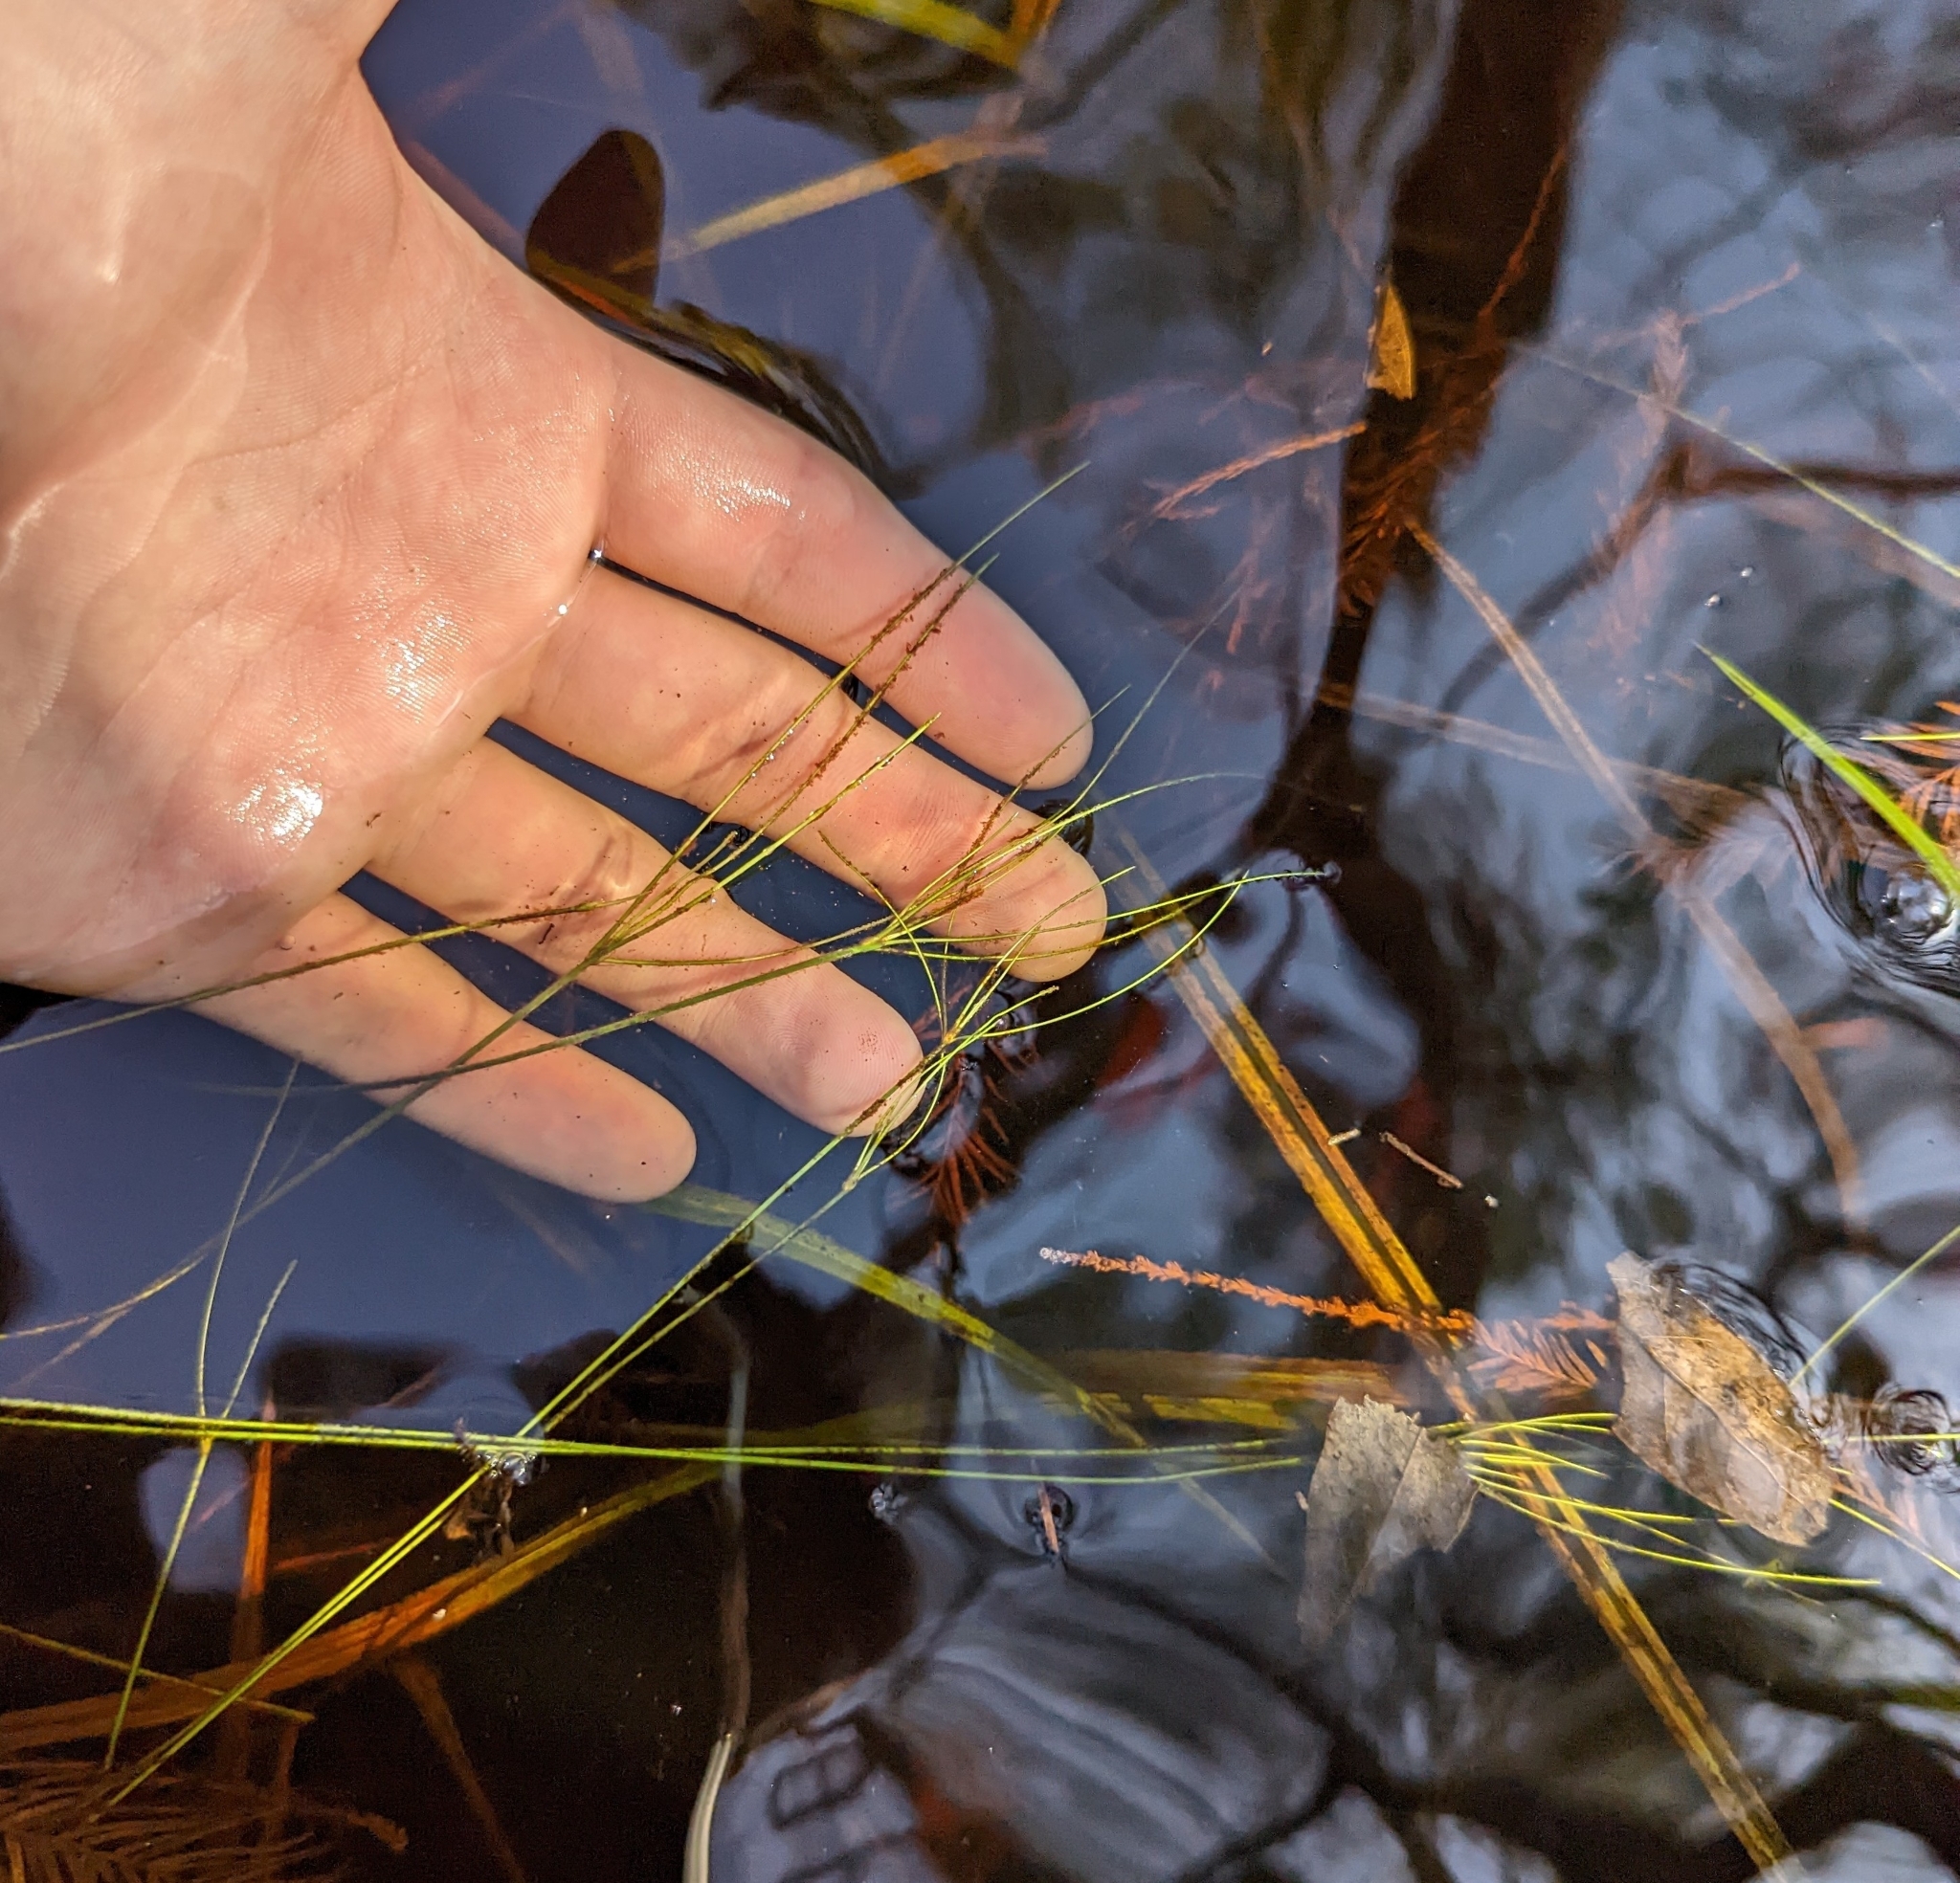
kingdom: Plantae
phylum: Tracheophyta
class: Liliopsida
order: Poales
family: Cyperaceae
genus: Eleocharis
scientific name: Eleocharis vivipara
